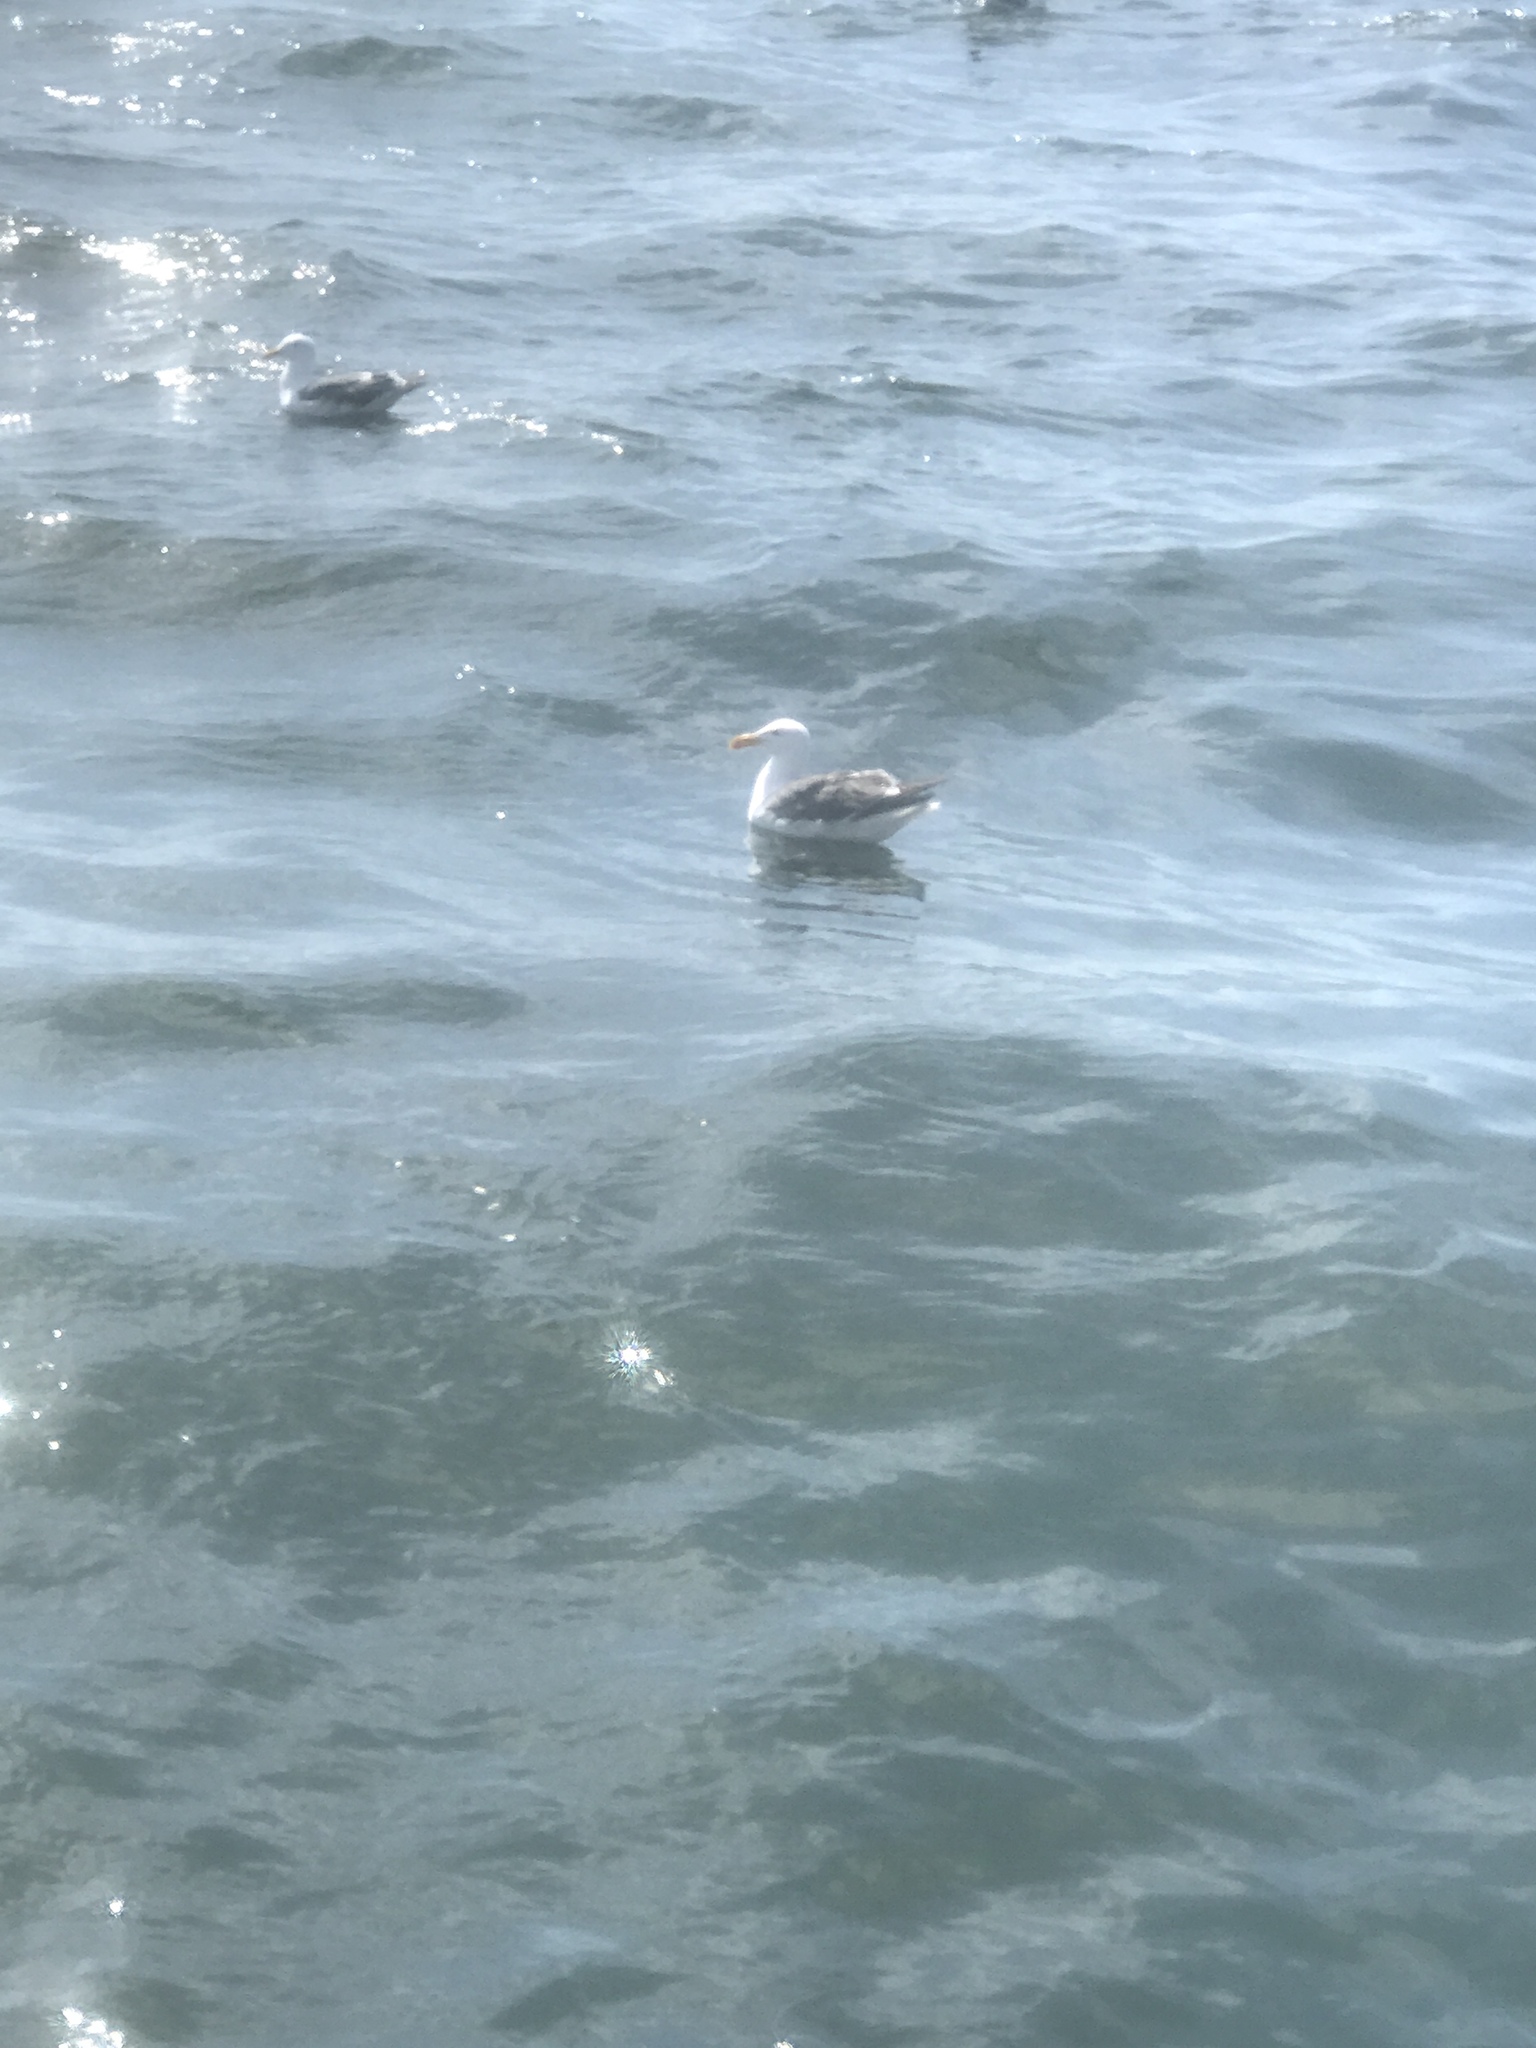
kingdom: Animalia
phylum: Chordata
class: Aves
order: Charadriiformes
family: Laridae
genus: Larus
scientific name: Larus occidentalis
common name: Western gull
